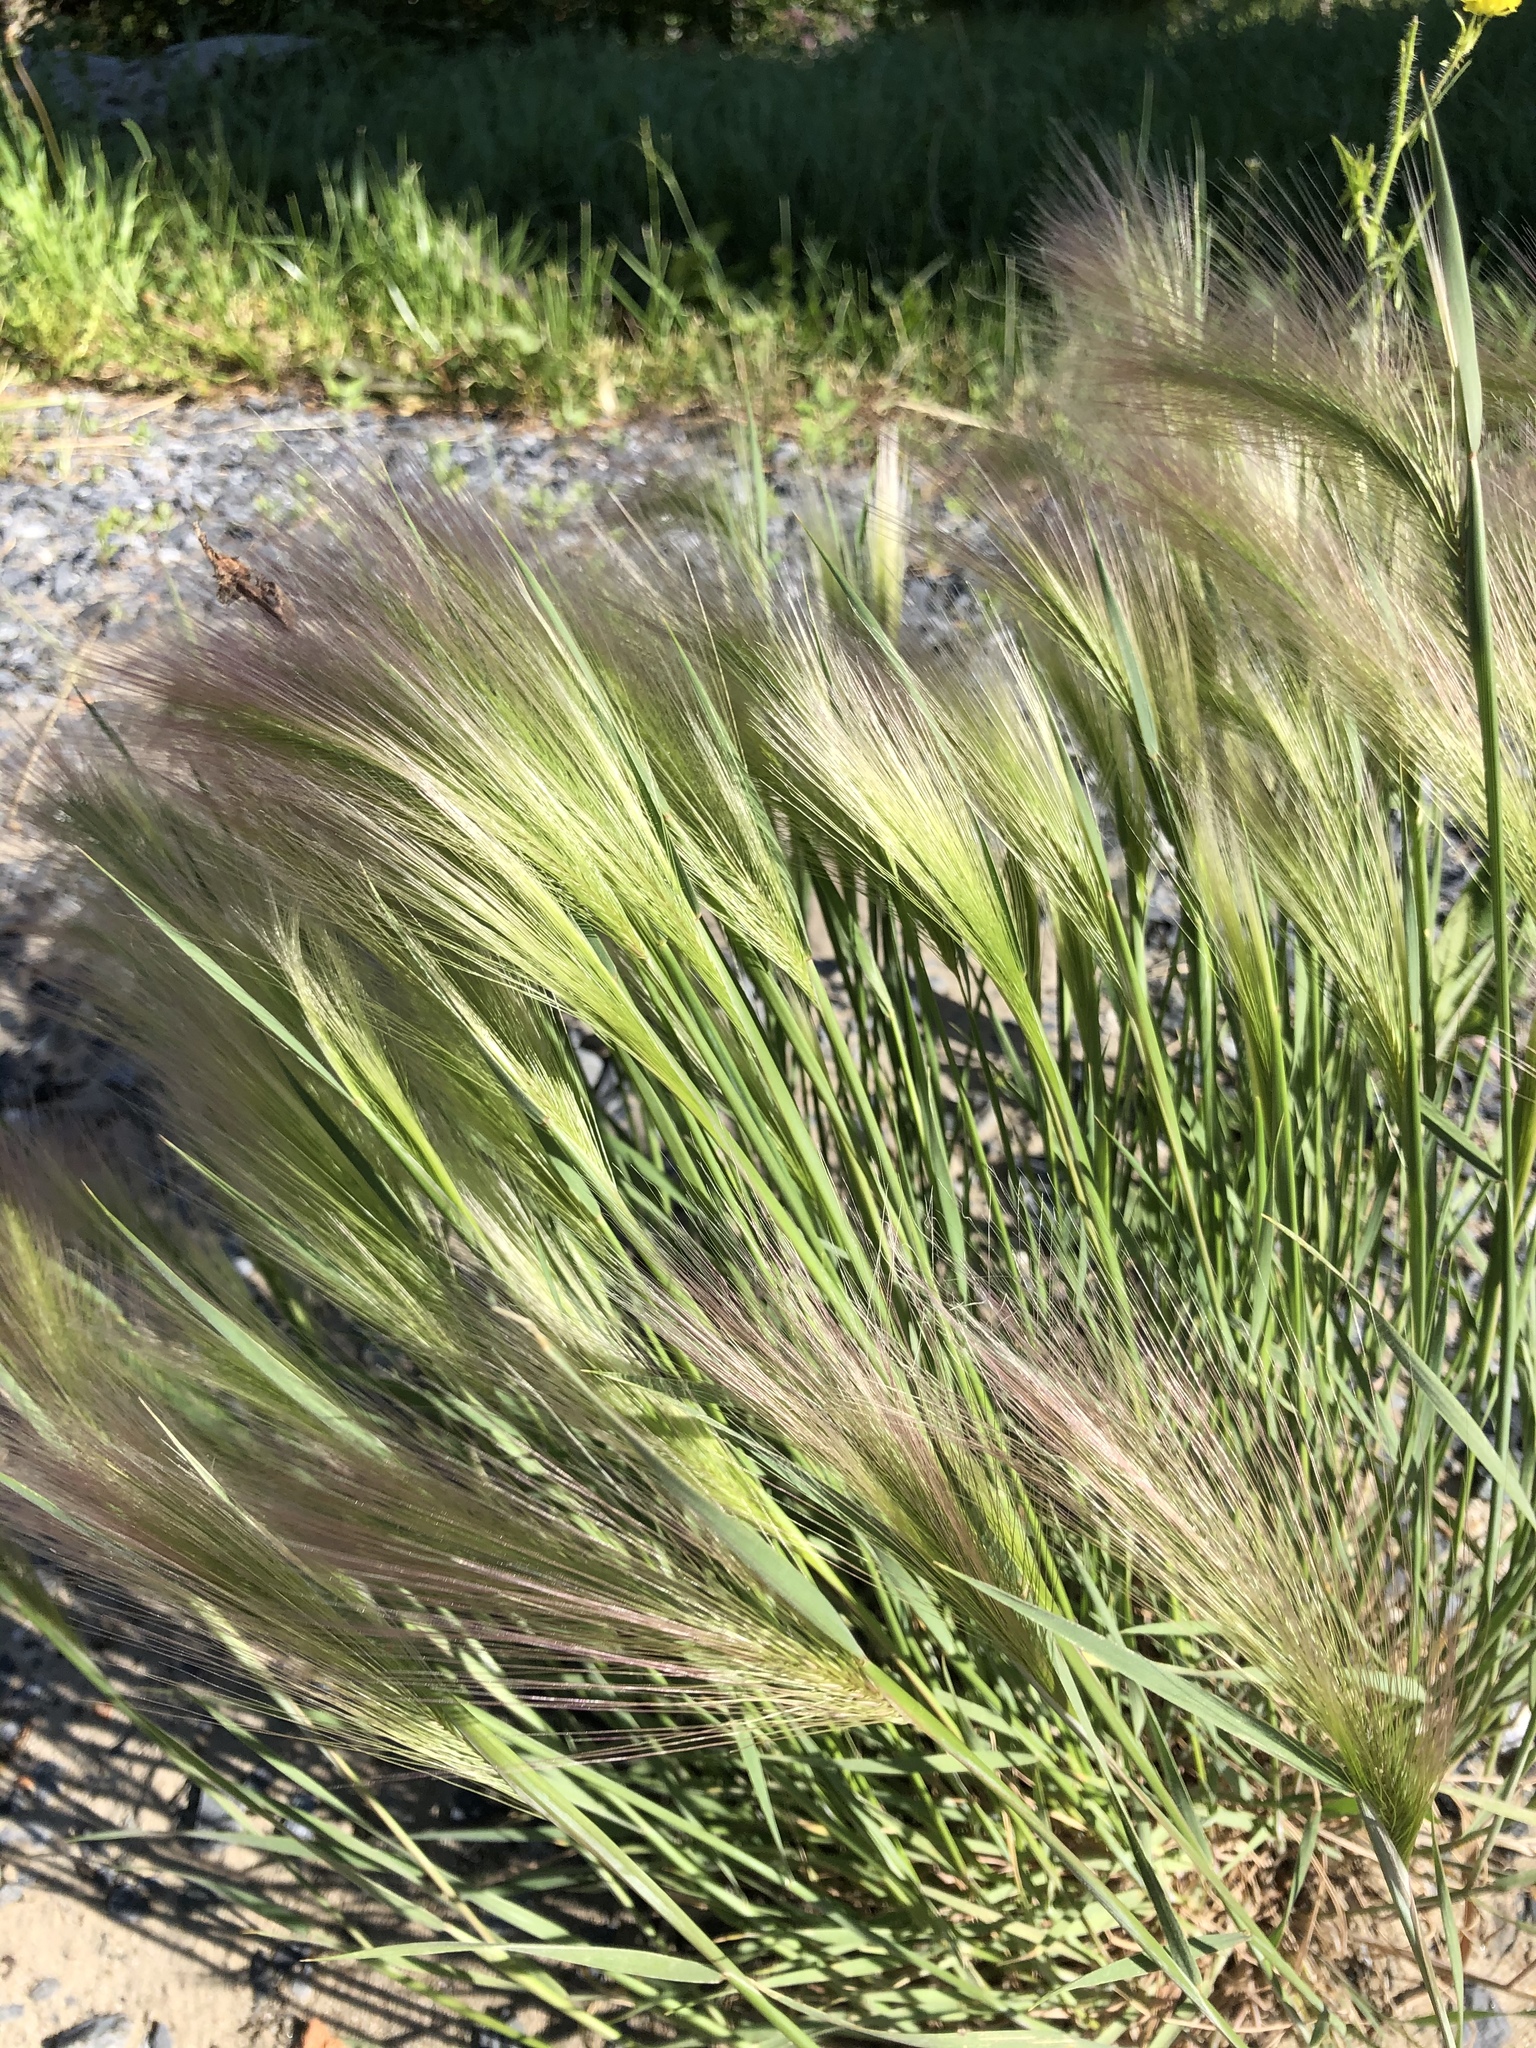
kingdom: Plantae
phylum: Tracheophyta
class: Liliopsida
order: Poales
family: Poaceae
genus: Hordeum
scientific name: Hordeum jubatum
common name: Foxtail barley
